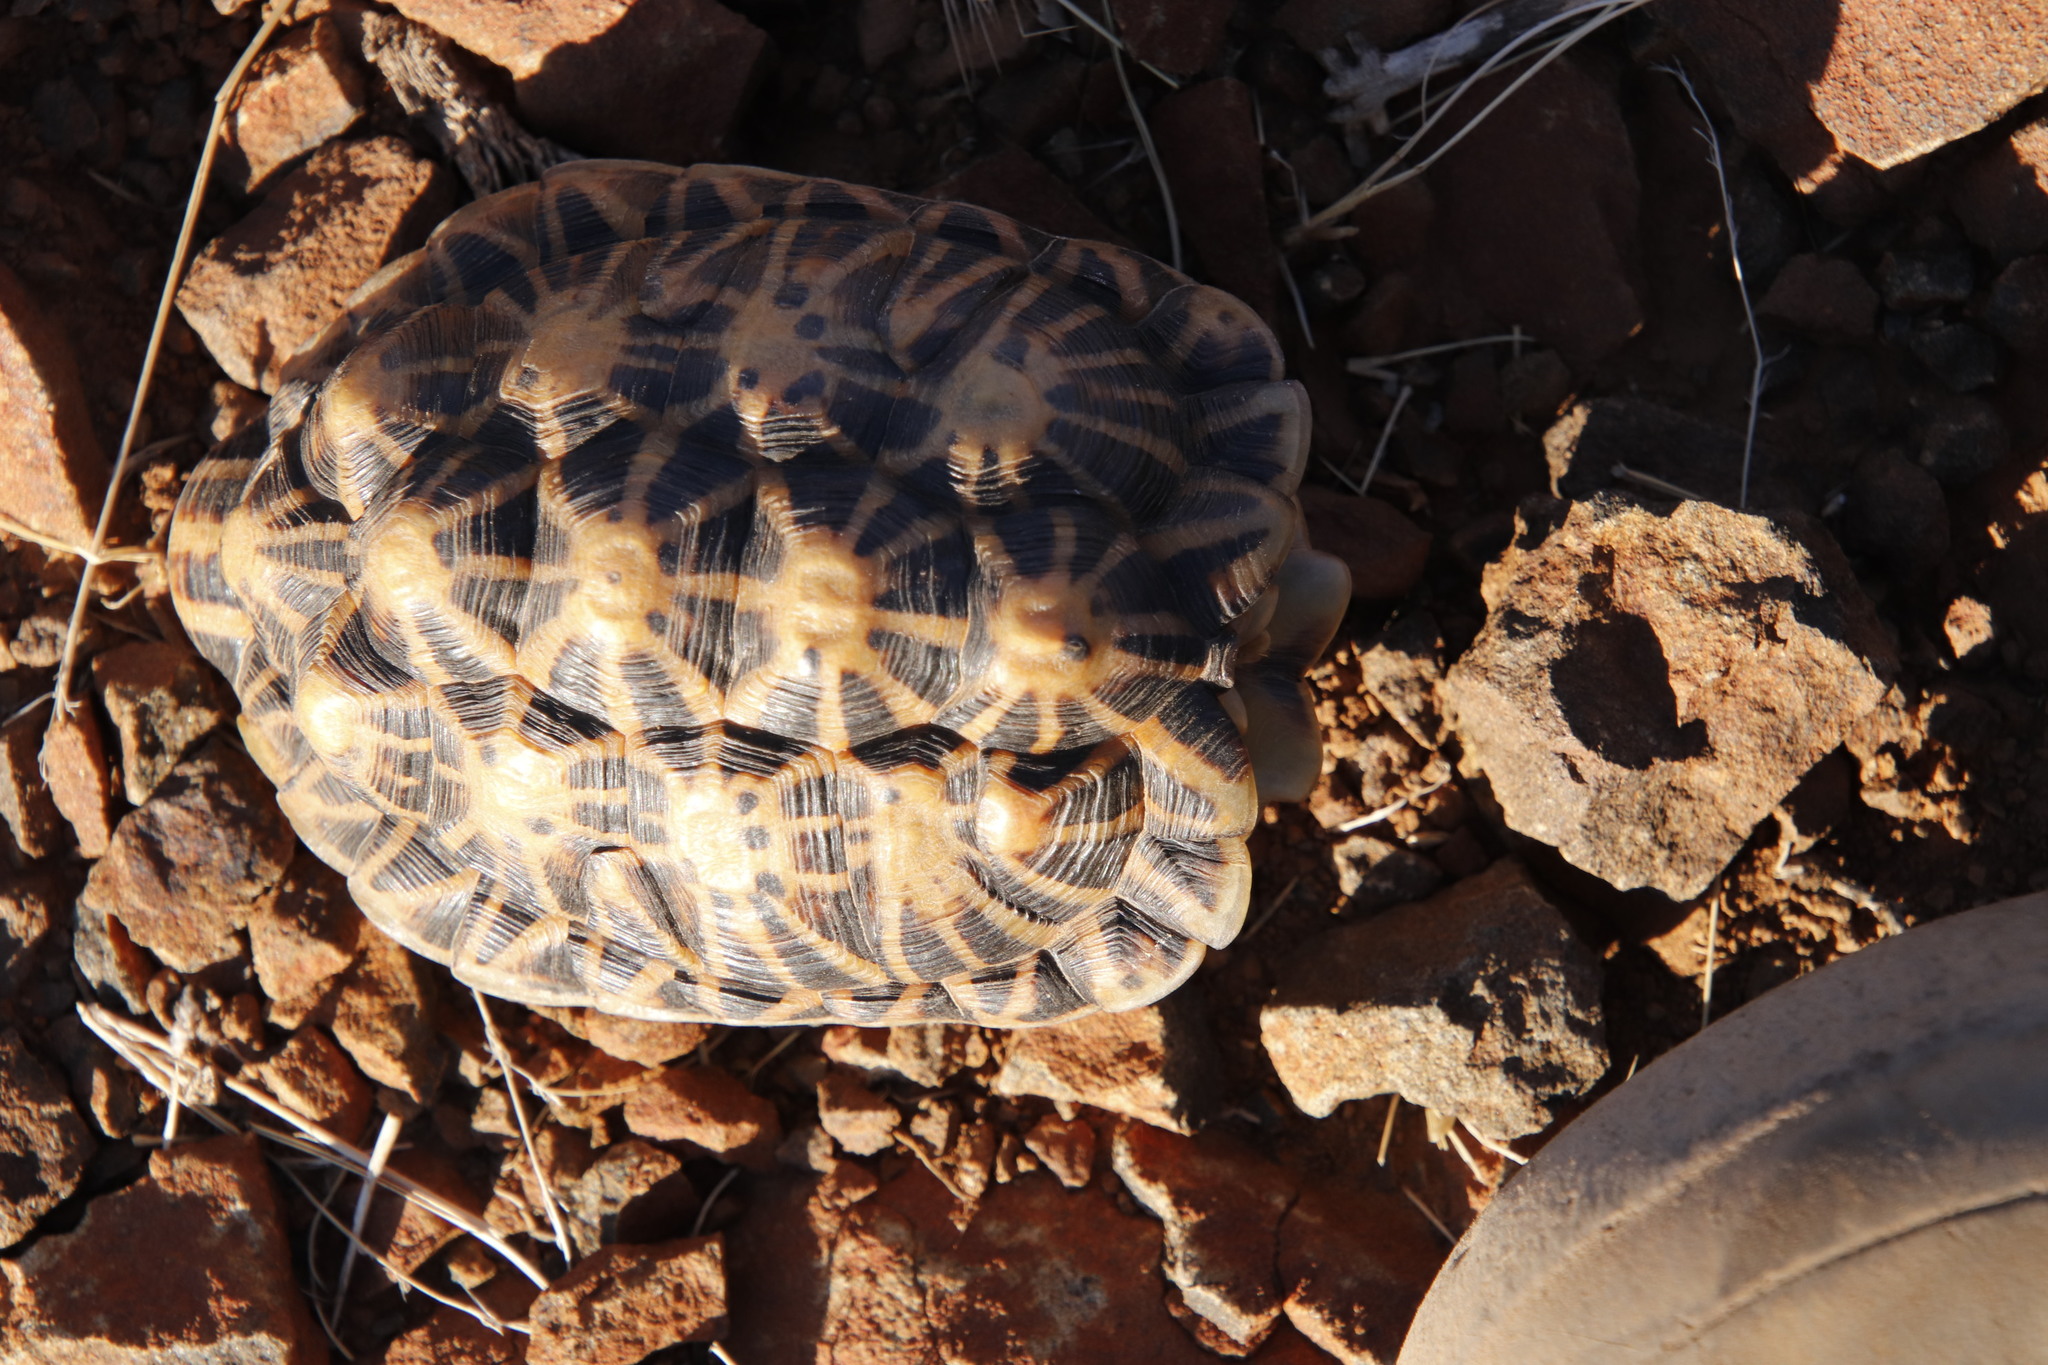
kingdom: Animalia
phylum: Chordata
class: Testudines
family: Testudinidae
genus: Psammobates
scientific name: Psammobates tentorius
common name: Tent tortoise
